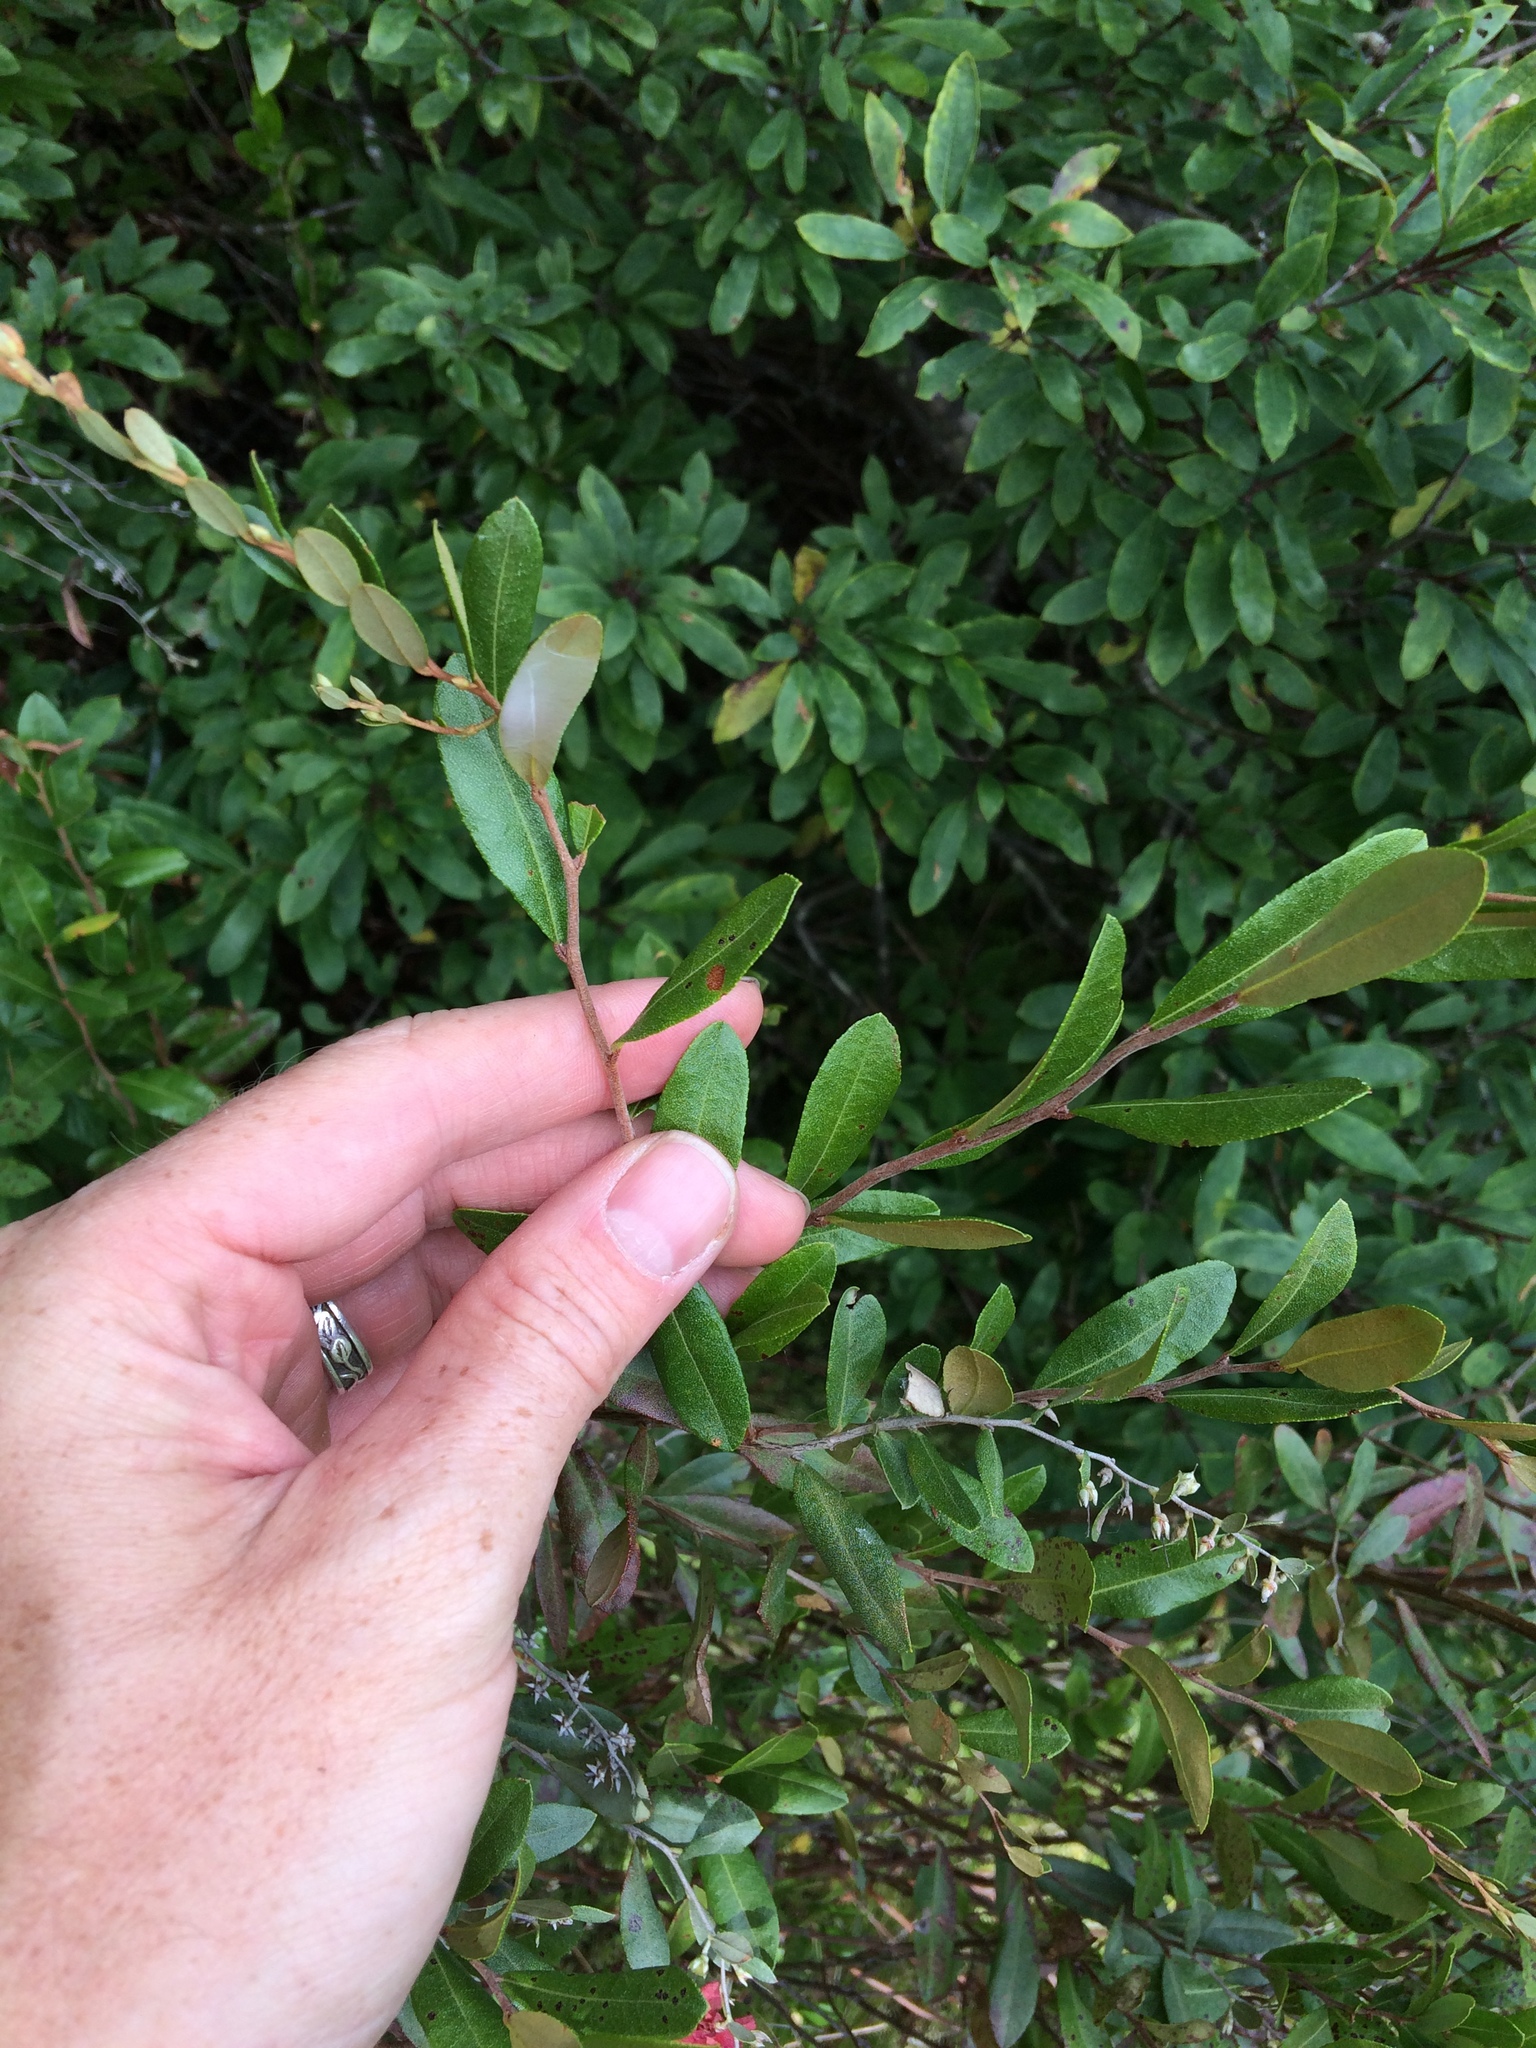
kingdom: Plantae
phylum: Tracheophyta
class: Magnoliopsida
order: Ericales
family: Ericaceae
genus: Chamaedaphne
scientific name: Chamaedaphne calyculata
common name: Leatherleaf
